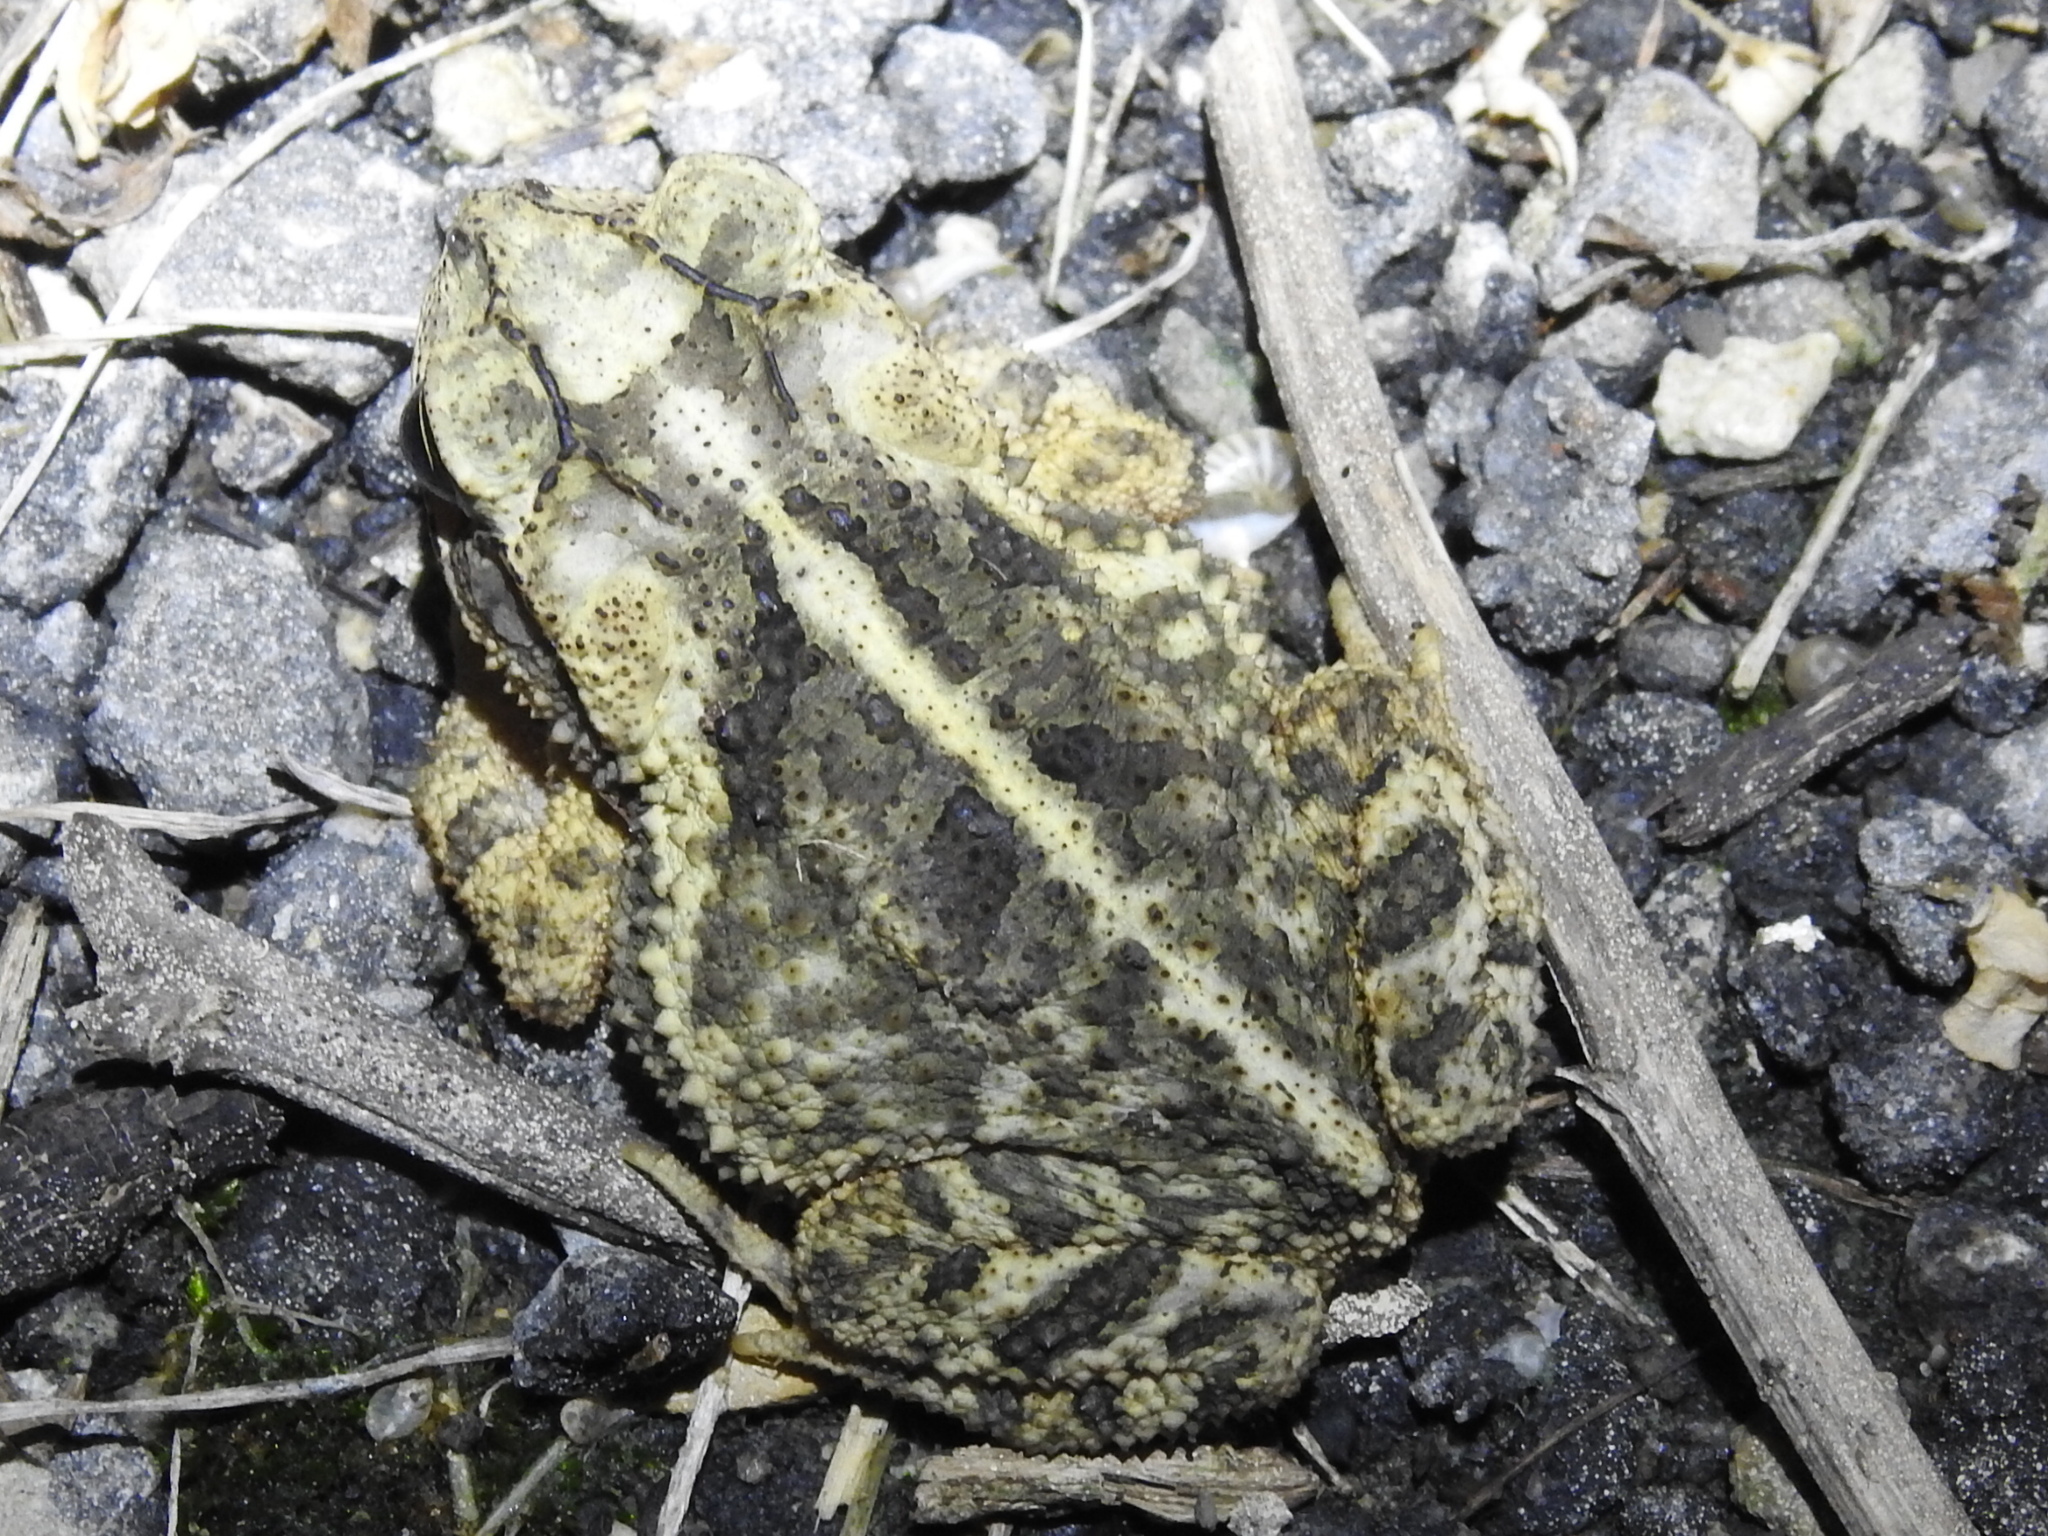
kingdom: Animalia
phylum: Chordata
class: Amphibia
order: Anura
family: Bufonidae
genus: Incilius
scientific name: Incilius nebulifer
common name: Gulf coast toad
